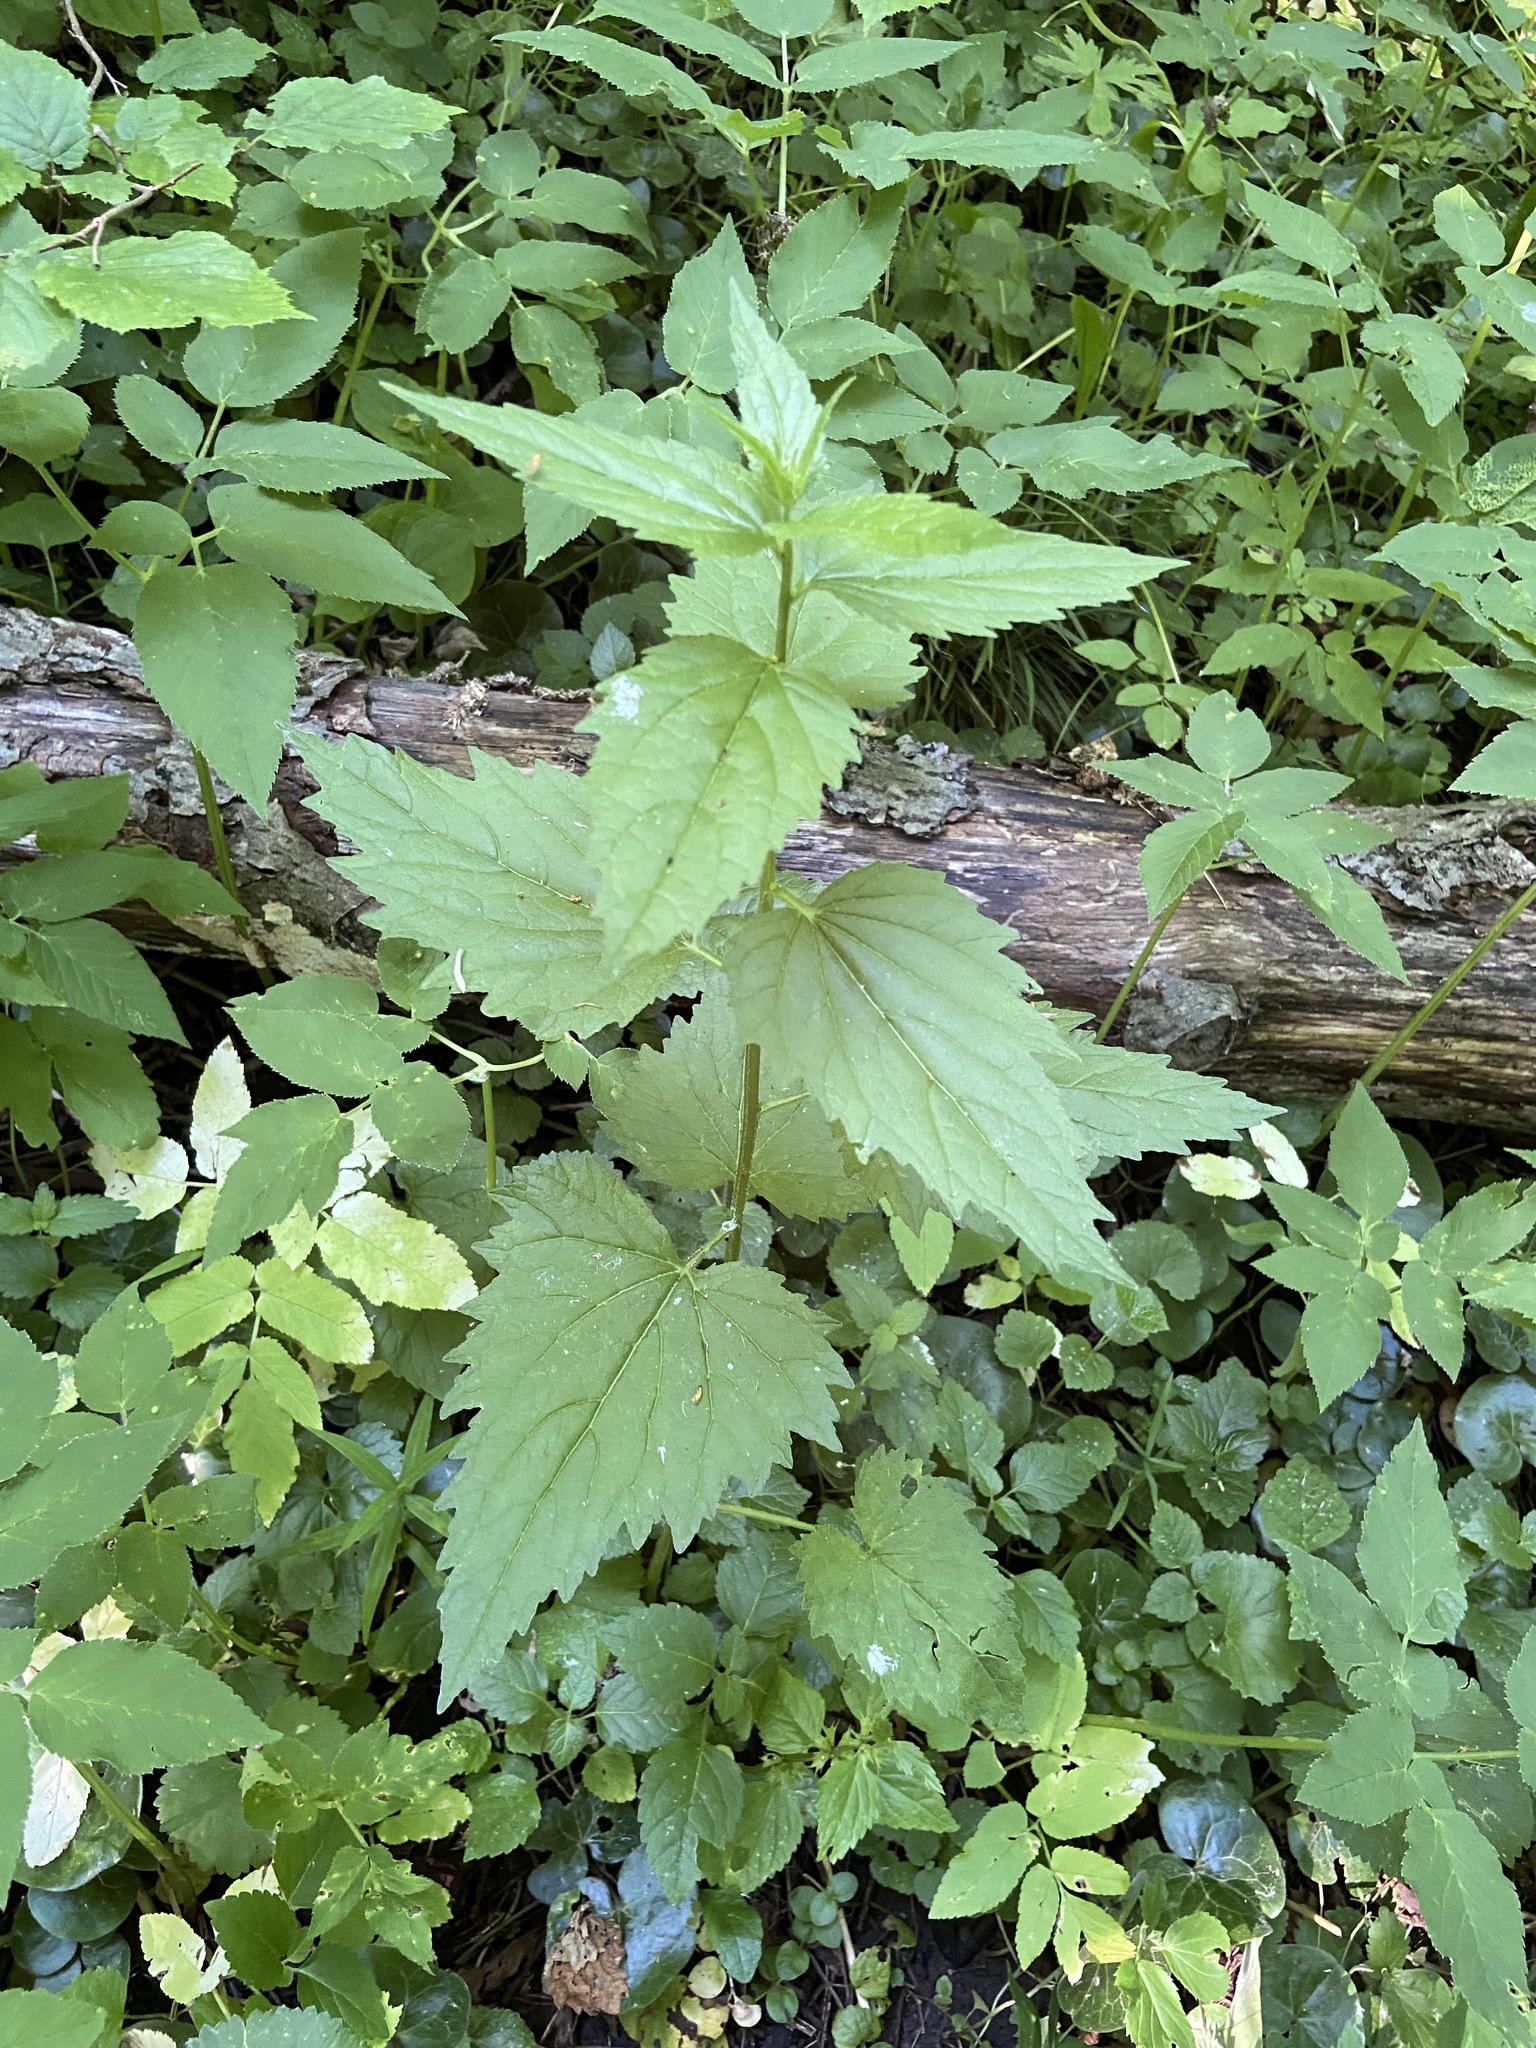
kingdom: Plantae
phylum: Tracheophyta
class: Magnoliopsida
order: Asterales
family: Campanulaceae
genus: Campanula
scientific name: Campanula trachelium
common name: Nettle-leaved bellflower
